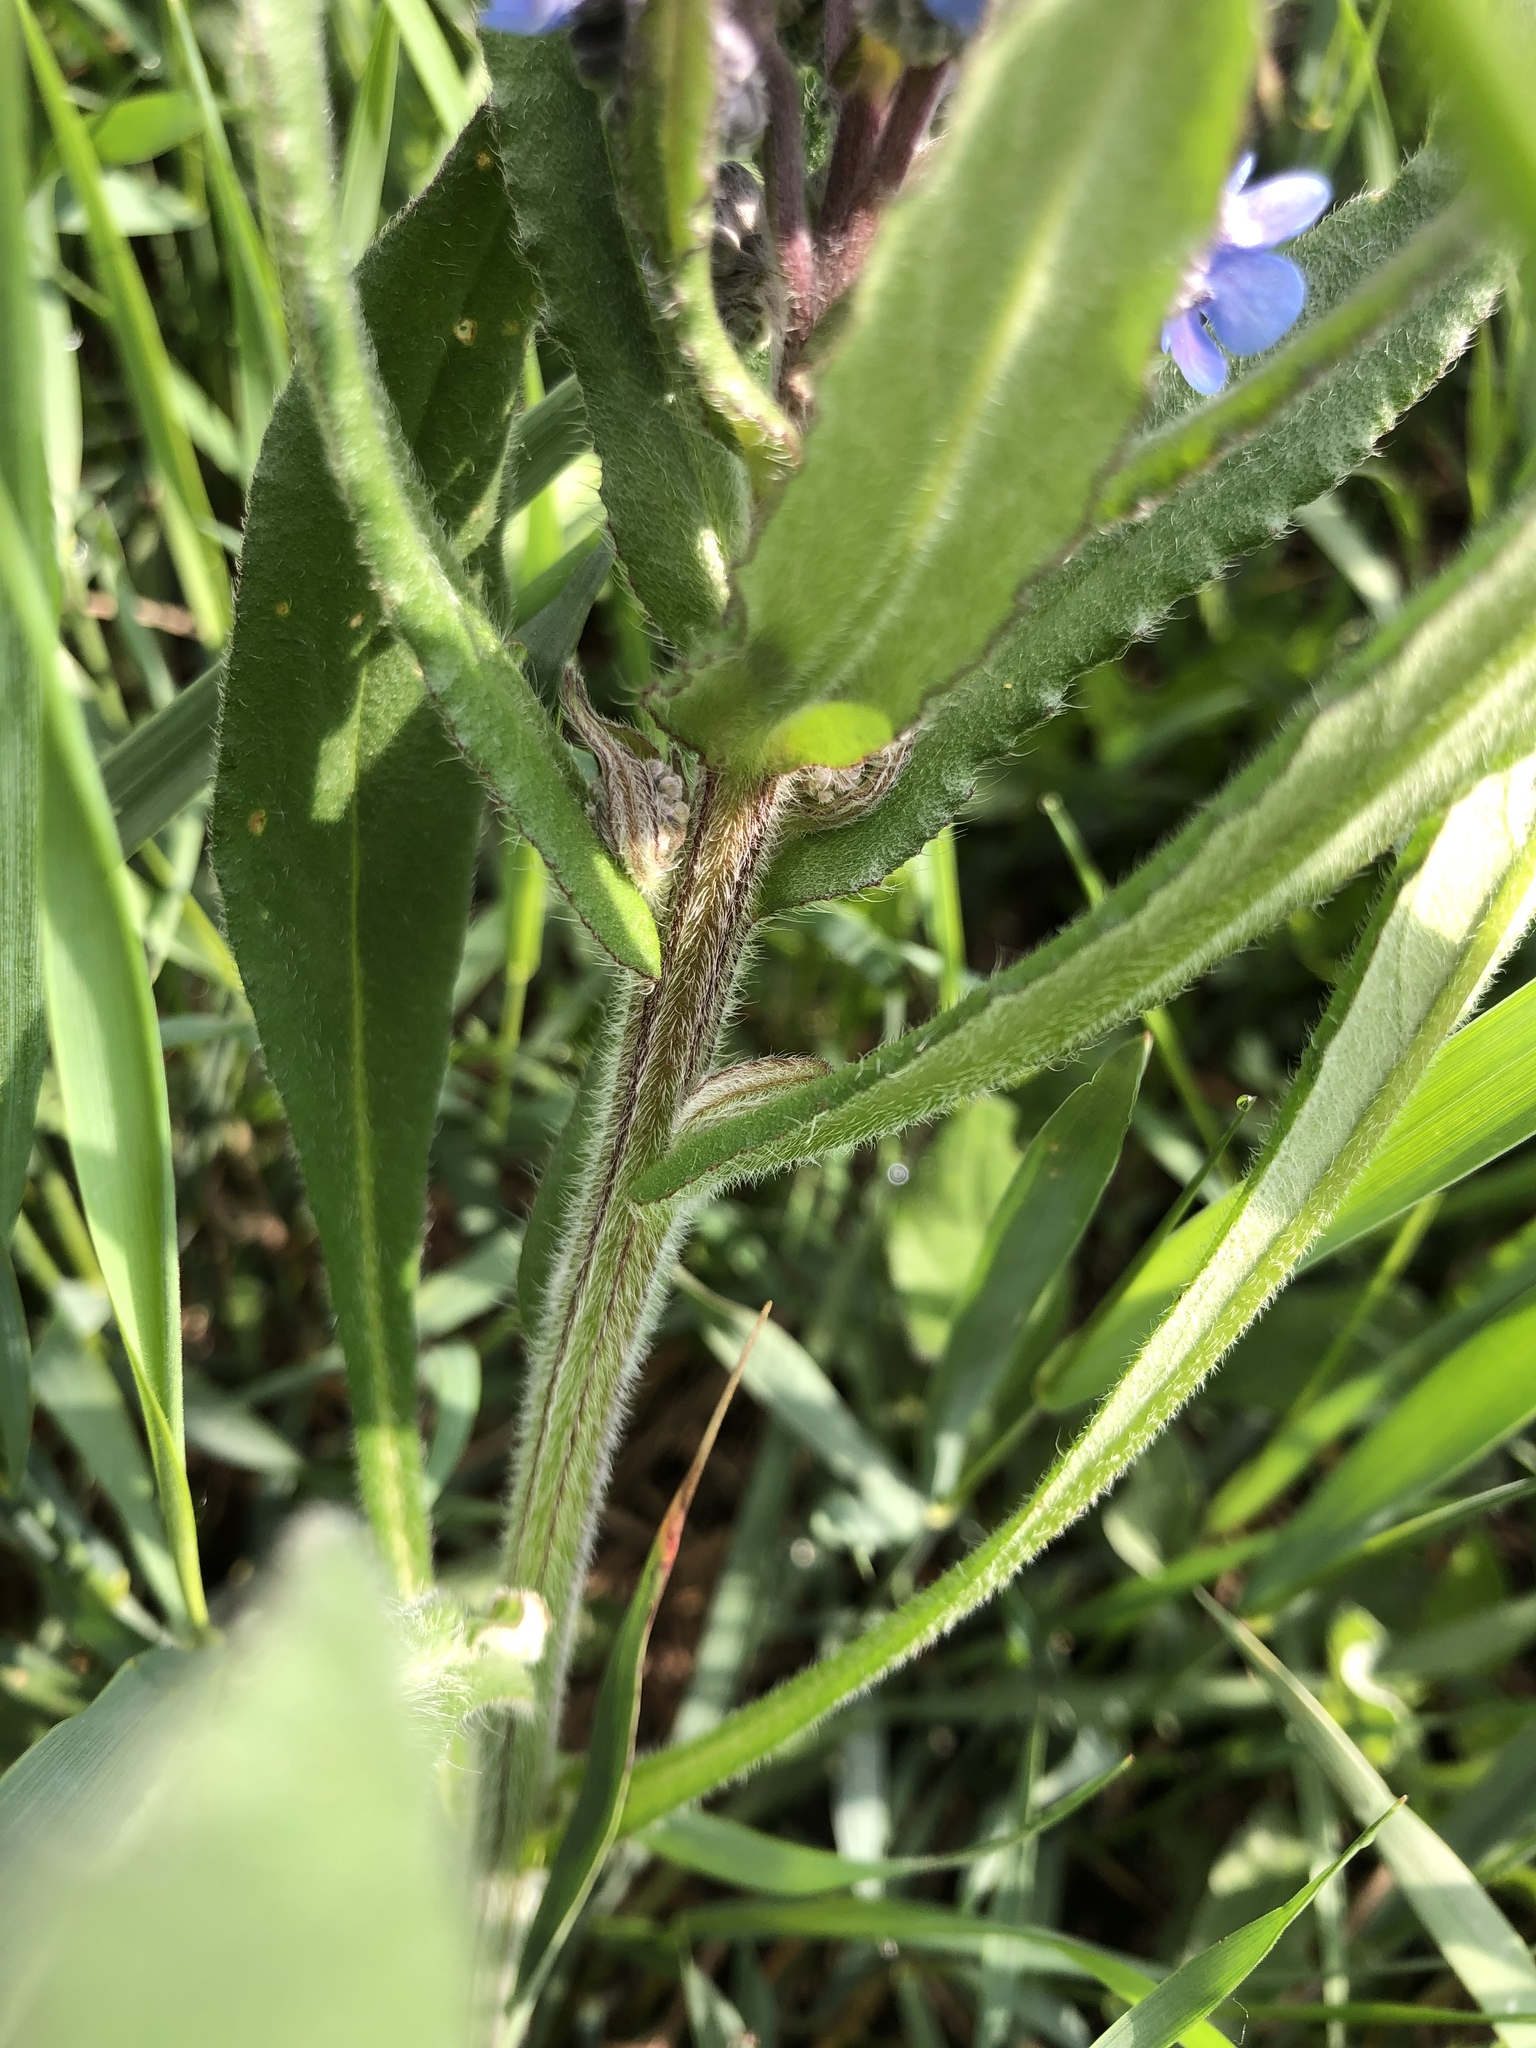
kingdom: Plantae
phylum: Tracheophyta
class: Magnoliopsida
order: Boraginales
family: Boraginaceae
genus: Cynoglottis
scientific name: Cynoglottis barrelieri
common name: False alkanet
